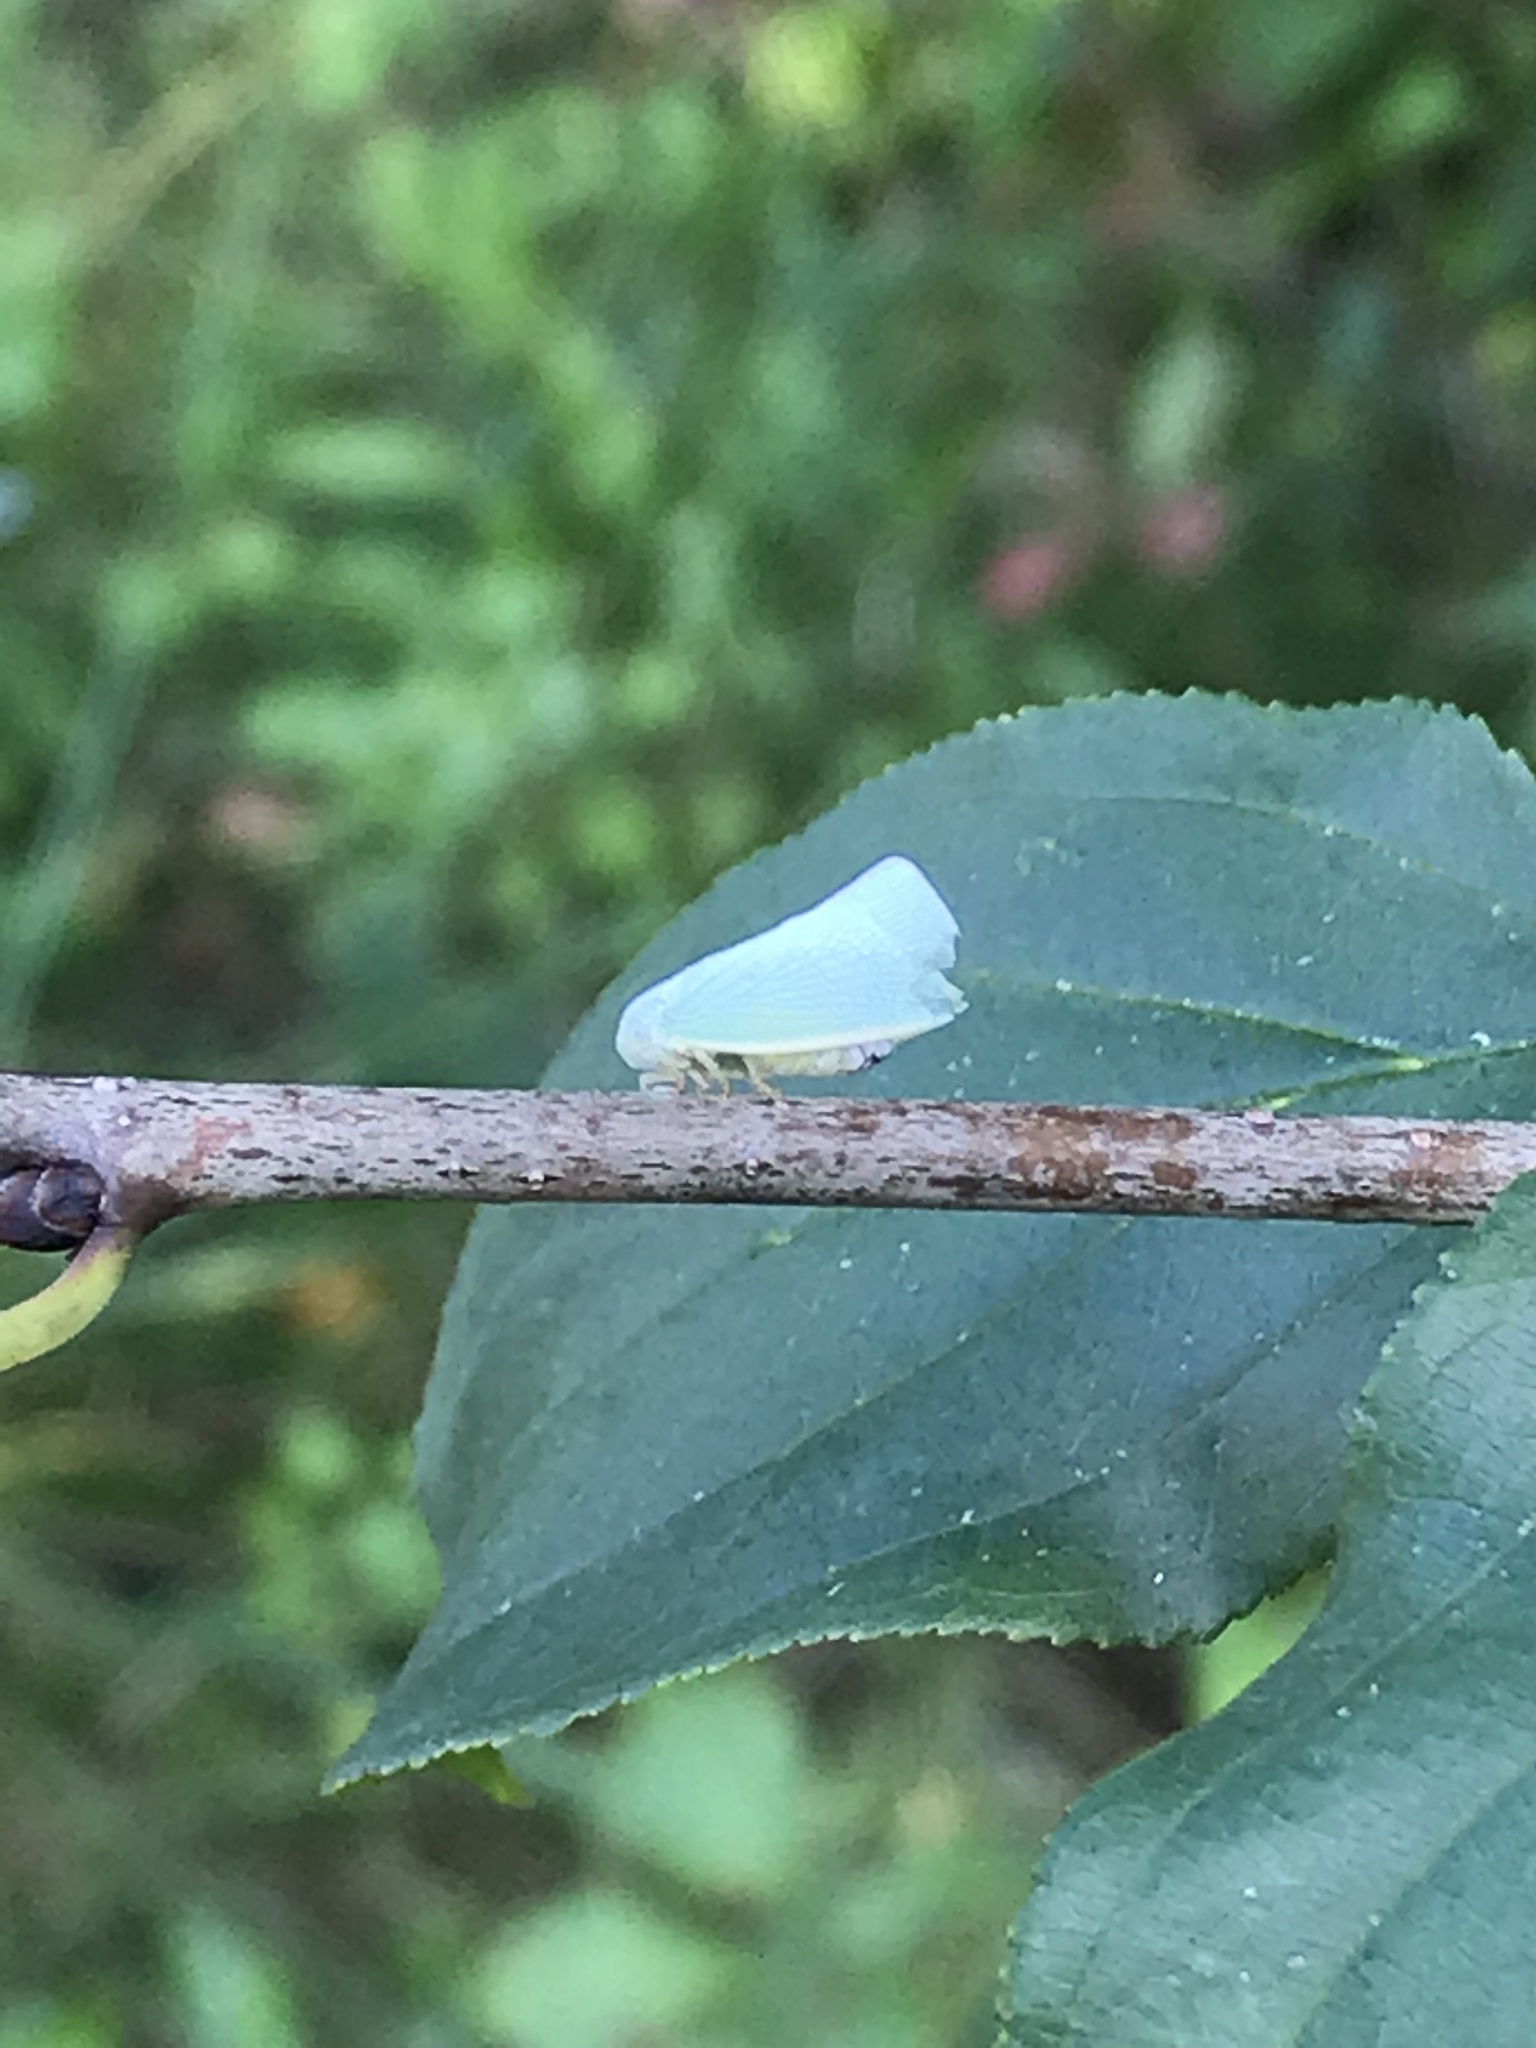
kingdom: Animalia
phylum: Arthropoda
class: Insecta
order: Hemiptera
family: Flatidae
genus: Flatormenis
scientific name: Flatormenis proxima
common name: Northern flatid planthopper
